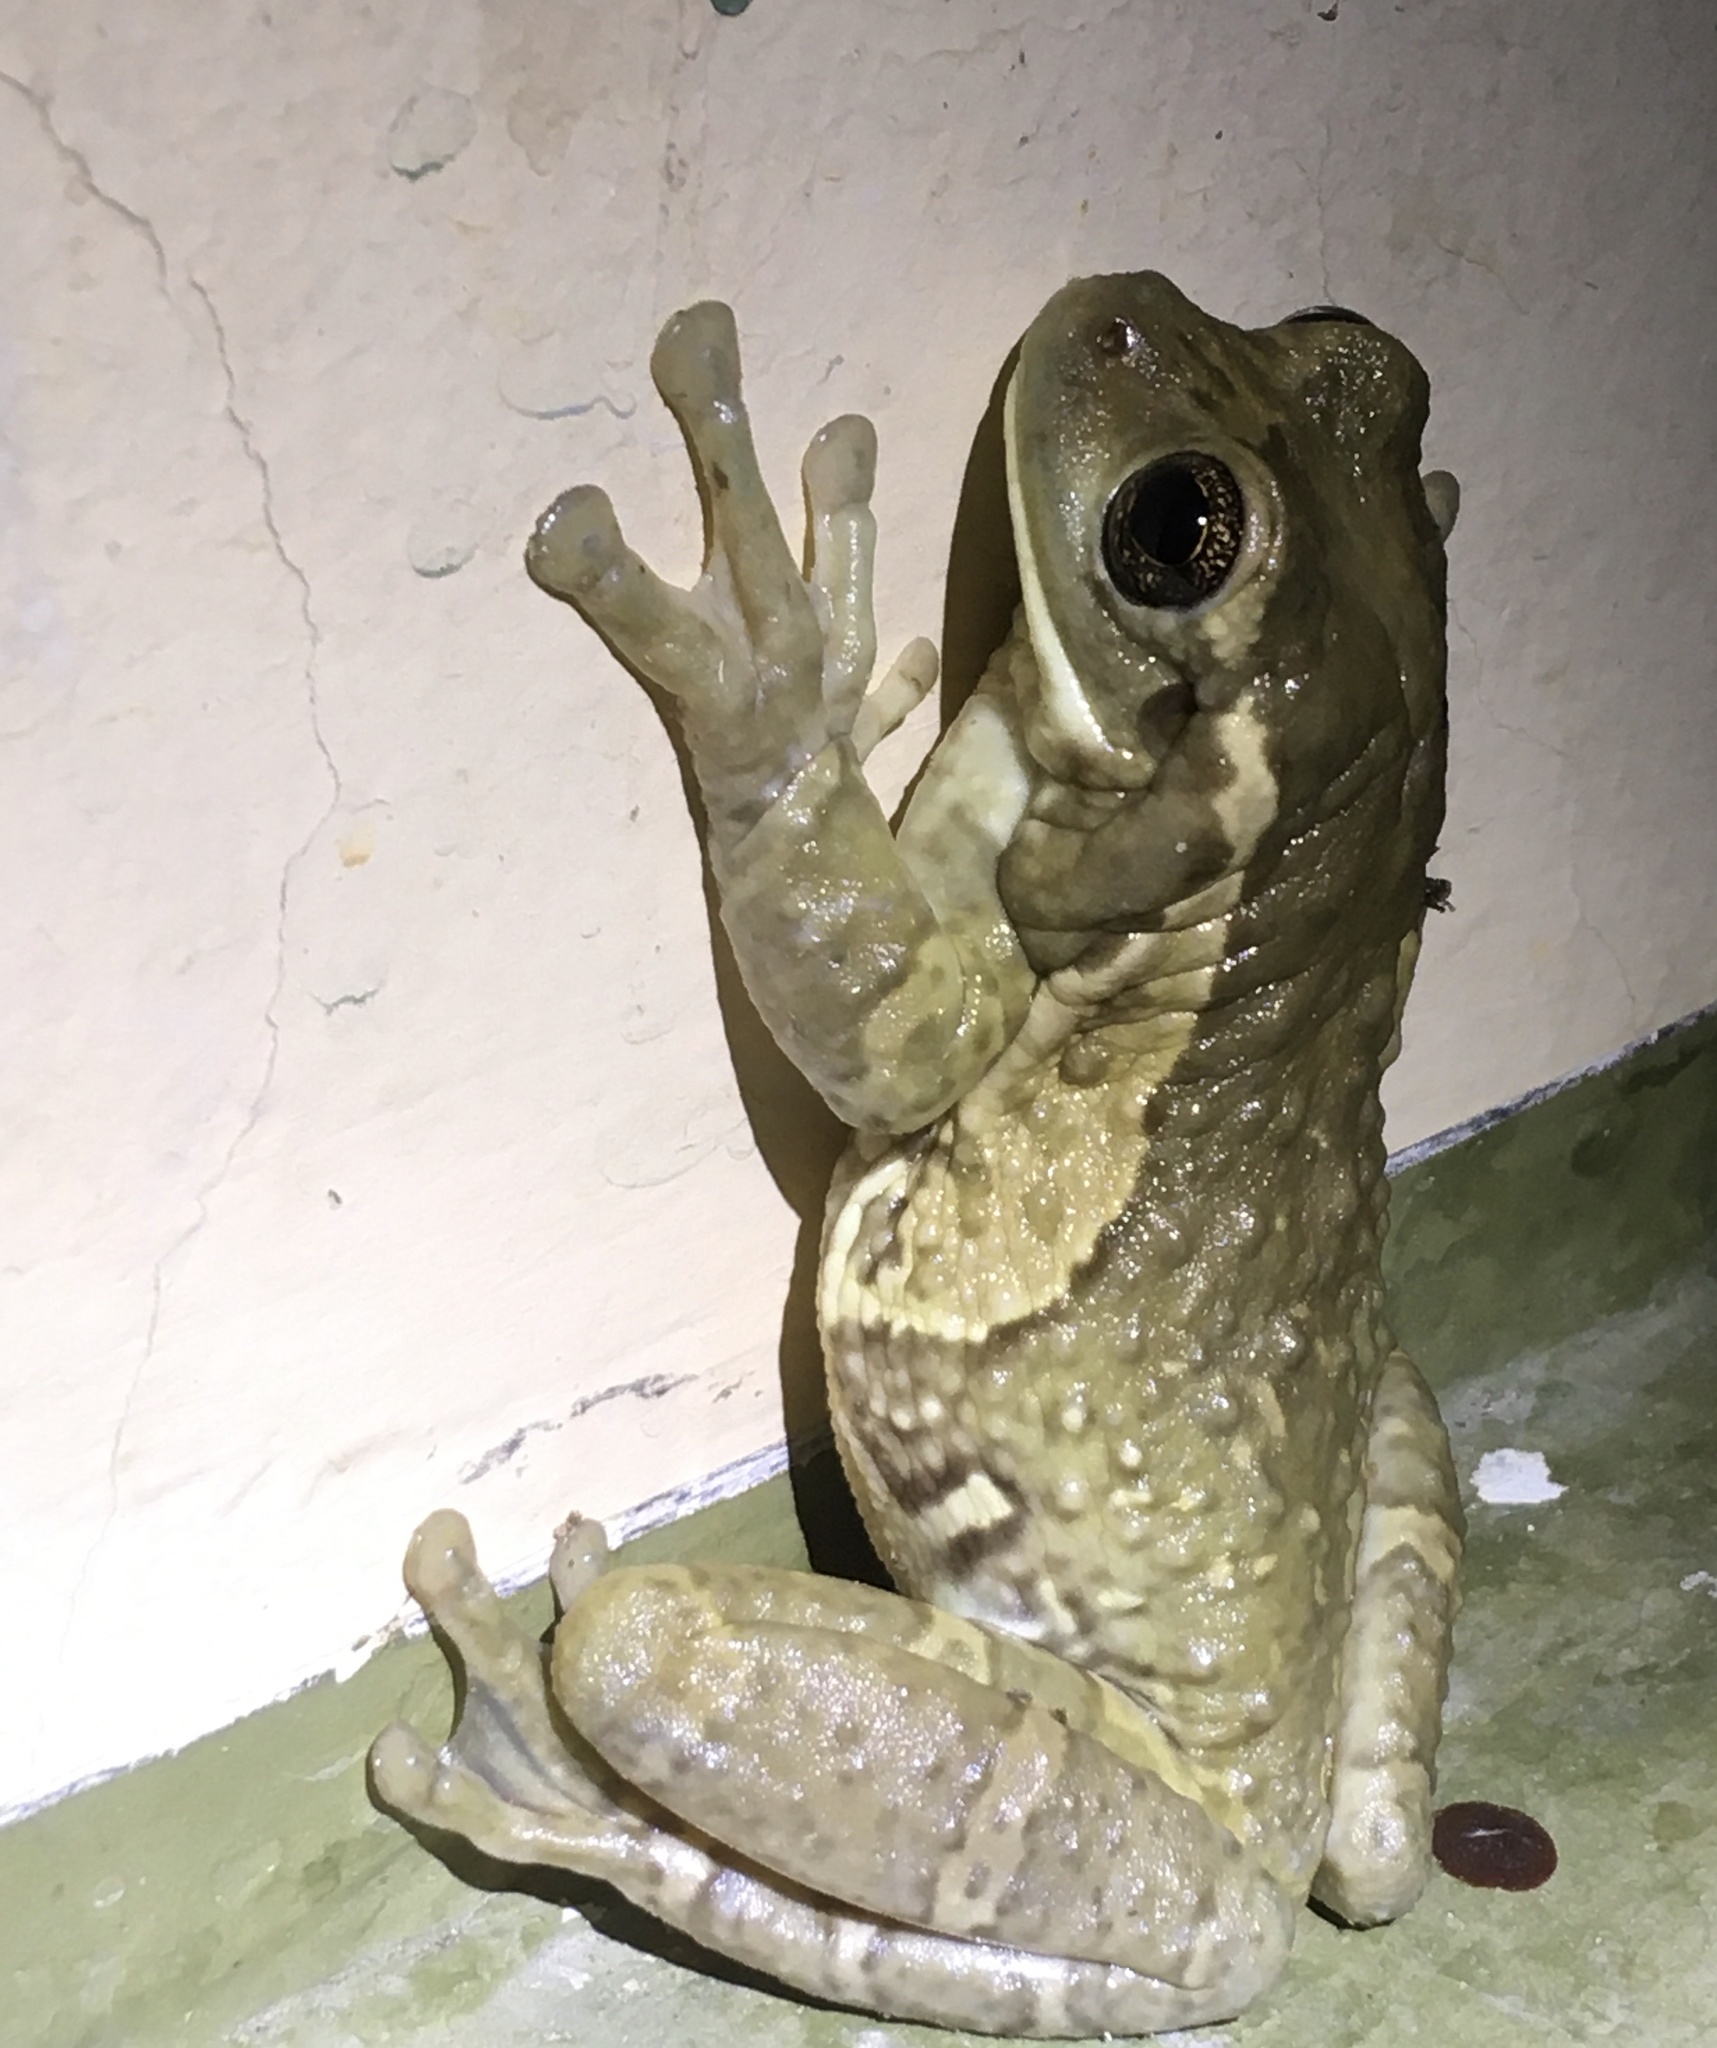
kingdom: Animalia
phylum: Chordata
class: Amphibia
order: Anura
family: Hylidae
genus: Trachycephalus
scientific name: Trachycephalus vermiculatus
